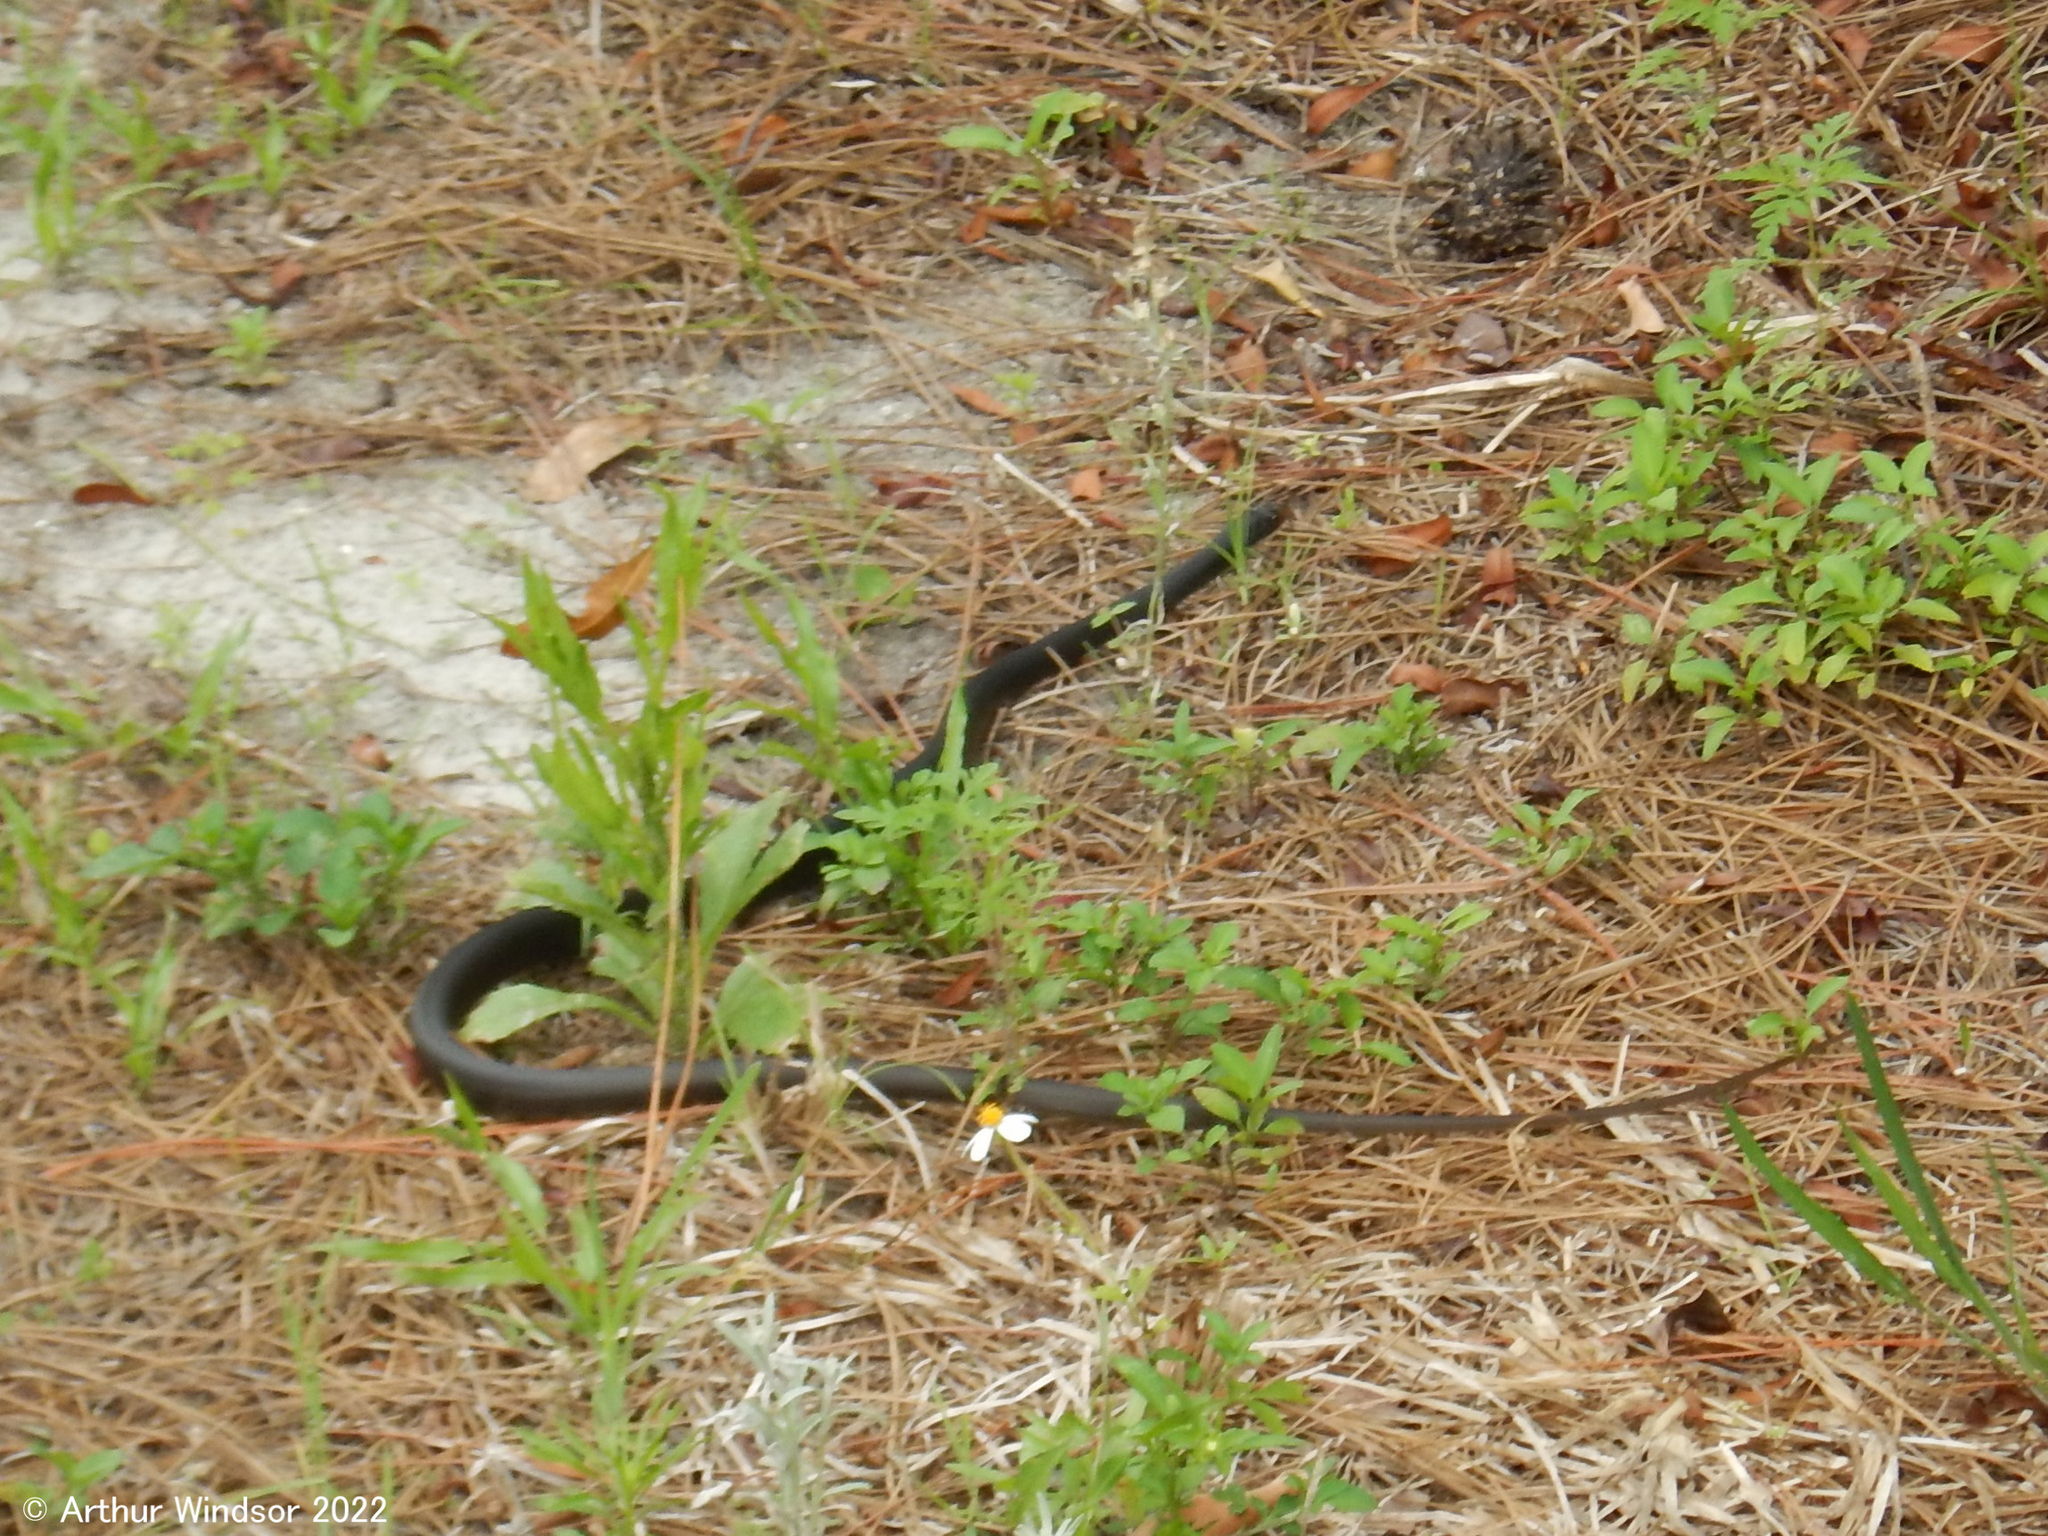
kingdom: Animalia
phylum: Chordata
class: Squamata
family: Colubridae
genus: Coluber
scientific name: Coluber constrictor
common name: Eastern racer
